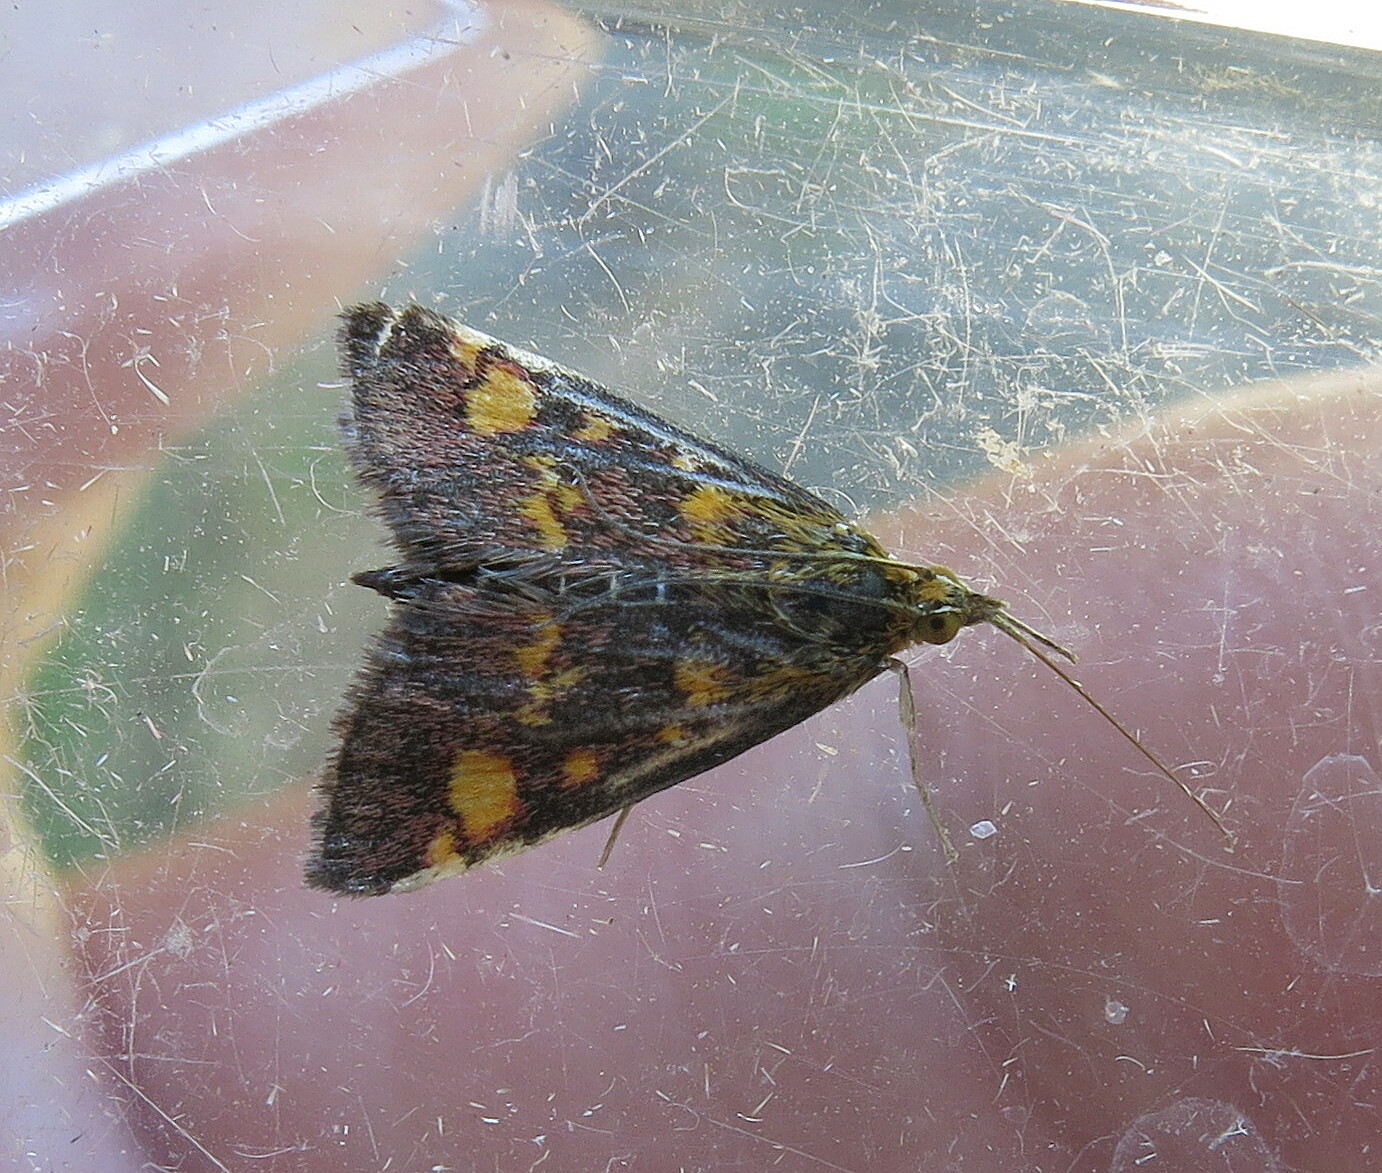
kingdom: Animalia
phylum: Arthropoda
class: Insecta
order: Lepidoptera
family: Crambidae
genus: Pyrausta
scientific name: Pyrausta aurata
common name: Small purple & gold
